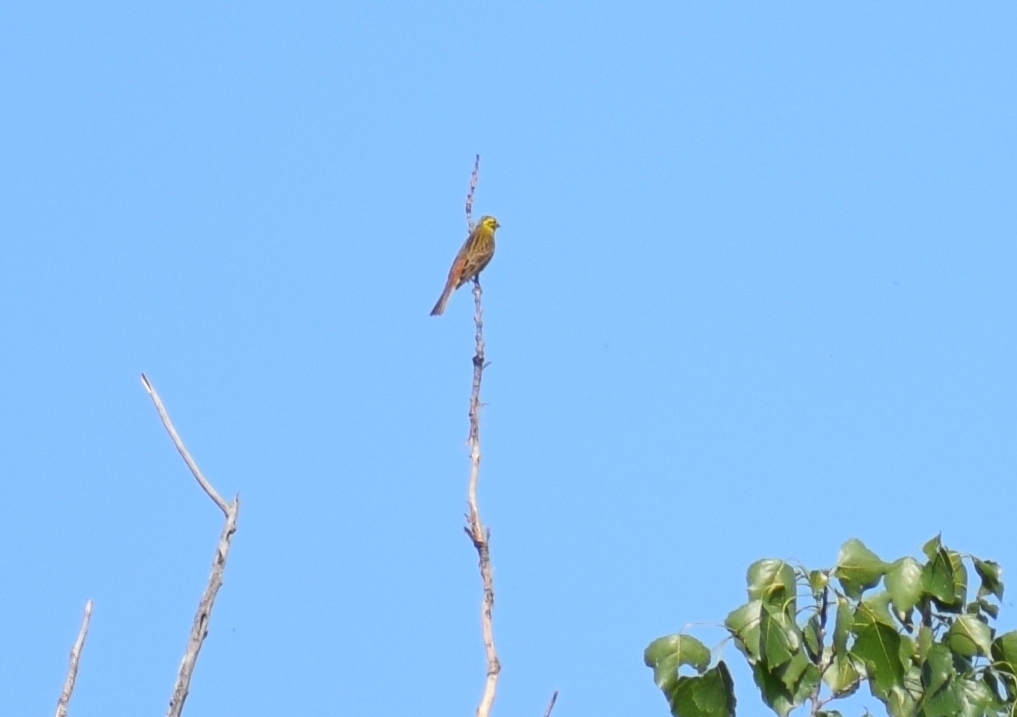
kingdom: Animalia
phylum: Chordata
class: Aves
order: Passeriformes
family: Emberizidae
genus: Emberiza
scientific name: Emberiza citrinella
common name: Yellowhammer
